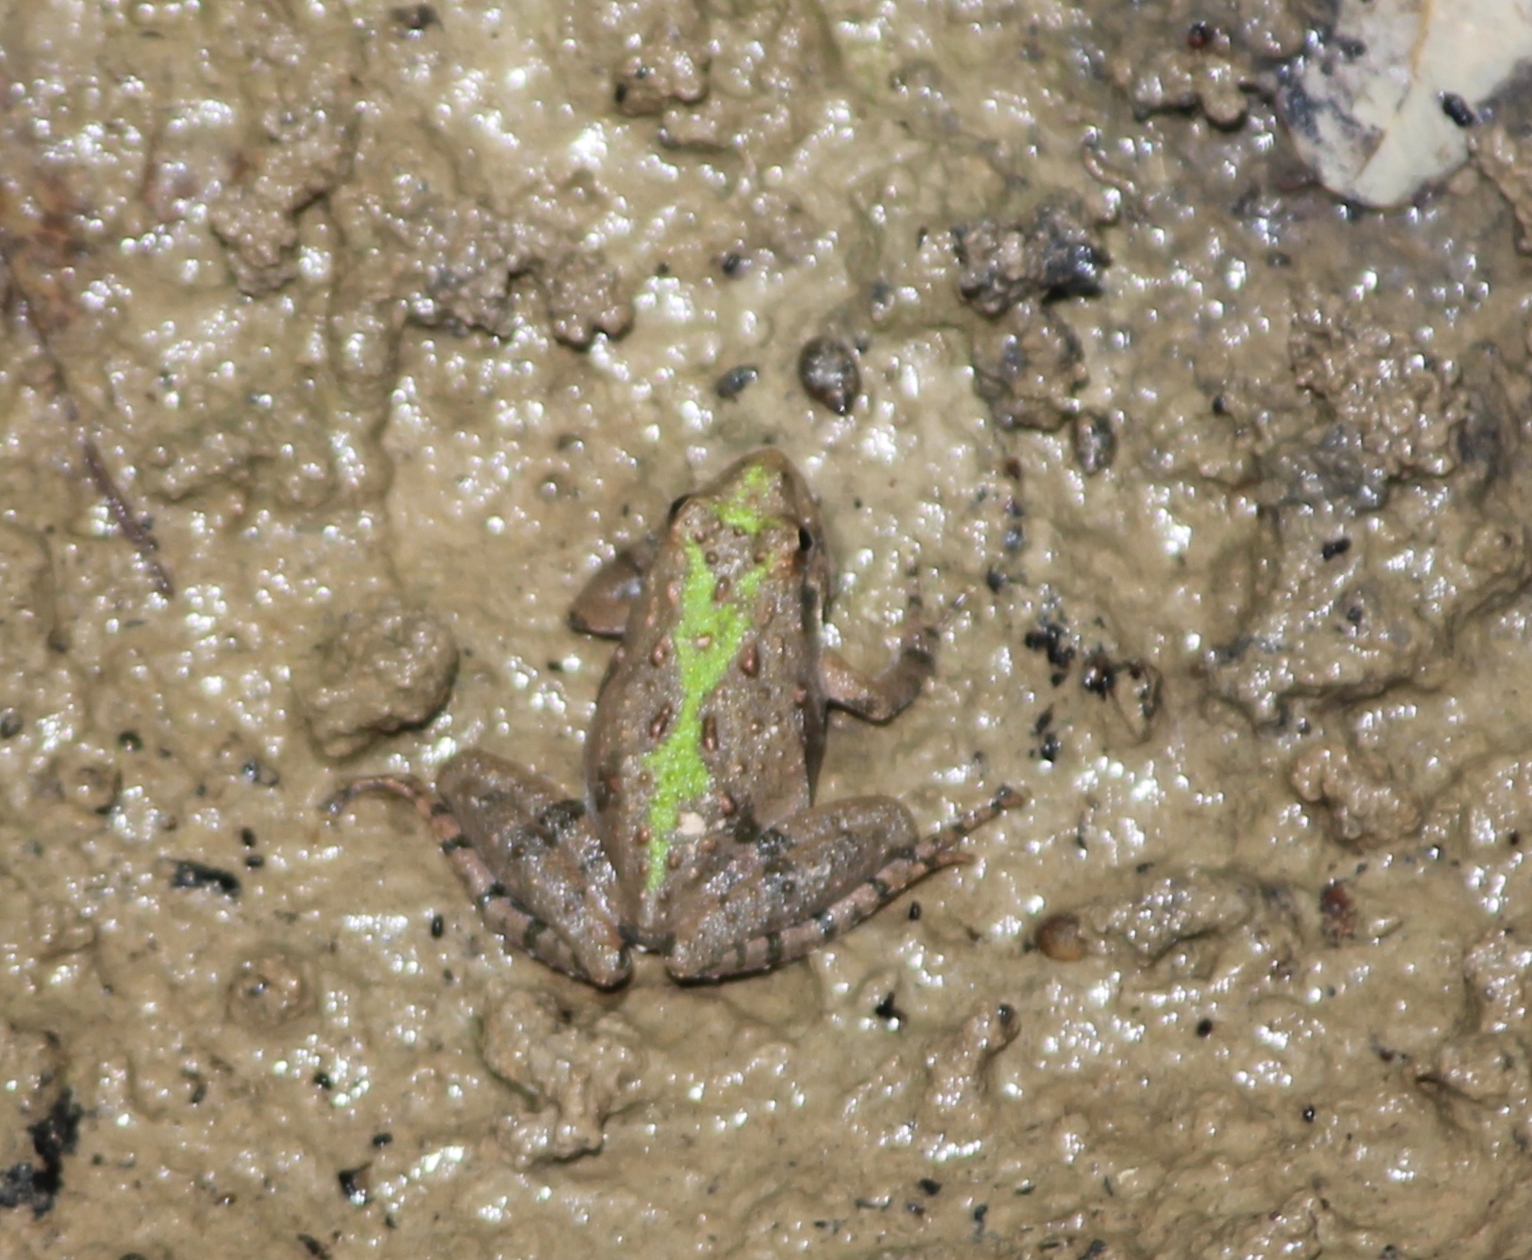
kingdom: Animalia
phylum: Chordata
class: Amphibia
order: Anura
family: Hylidae
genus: Acris
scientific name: Acris crepitans
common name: Northern cricket frog
